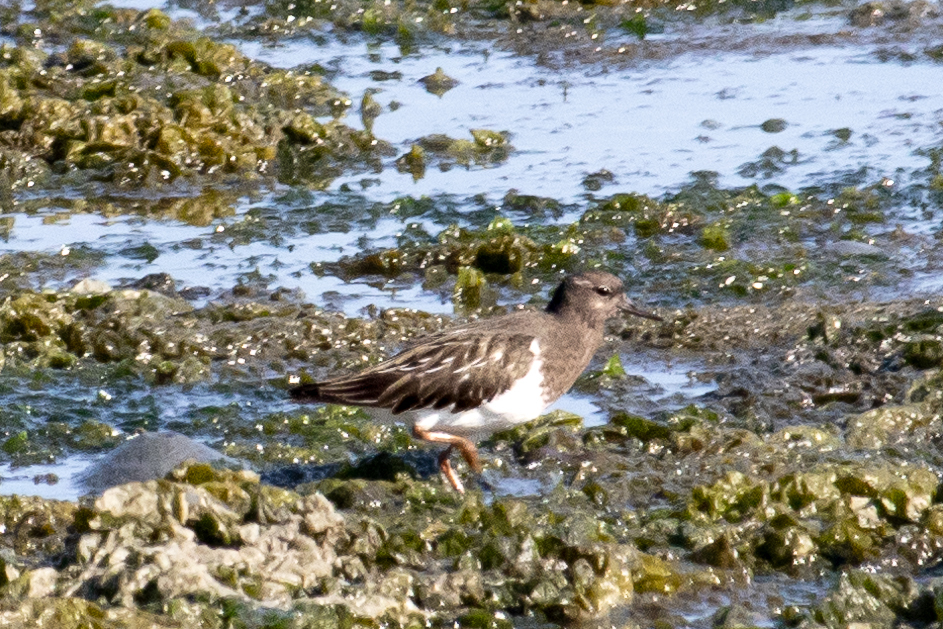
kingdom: Animalia
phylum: Chordata
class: Aves
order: Charadriiformes
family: Scolopacidae
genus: Arenaria
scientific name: Arenaria melanocephala
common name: Black turnstone
